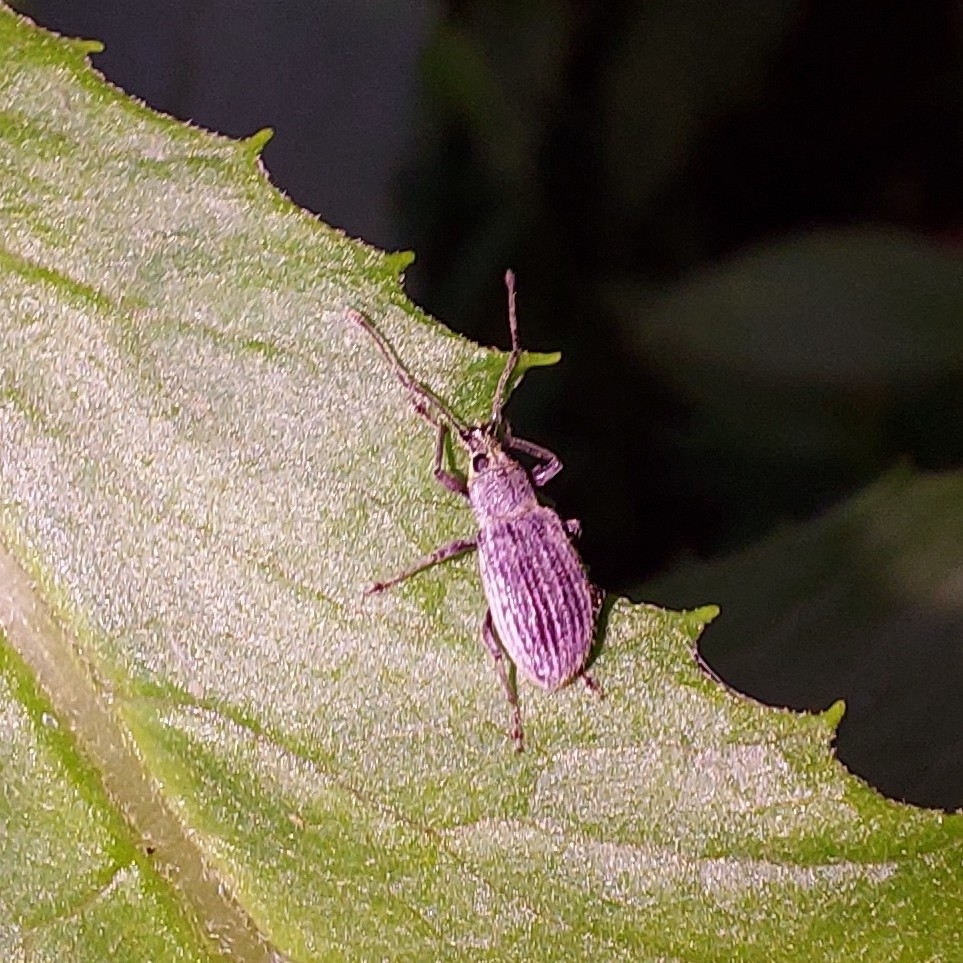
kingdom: Animalia
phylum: Arthropoda
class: Insecta
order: Coleoptera
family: Curculionidae
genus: Cyrtepistomus
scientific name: Cyrtepistomus castaneus
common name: Weevil
